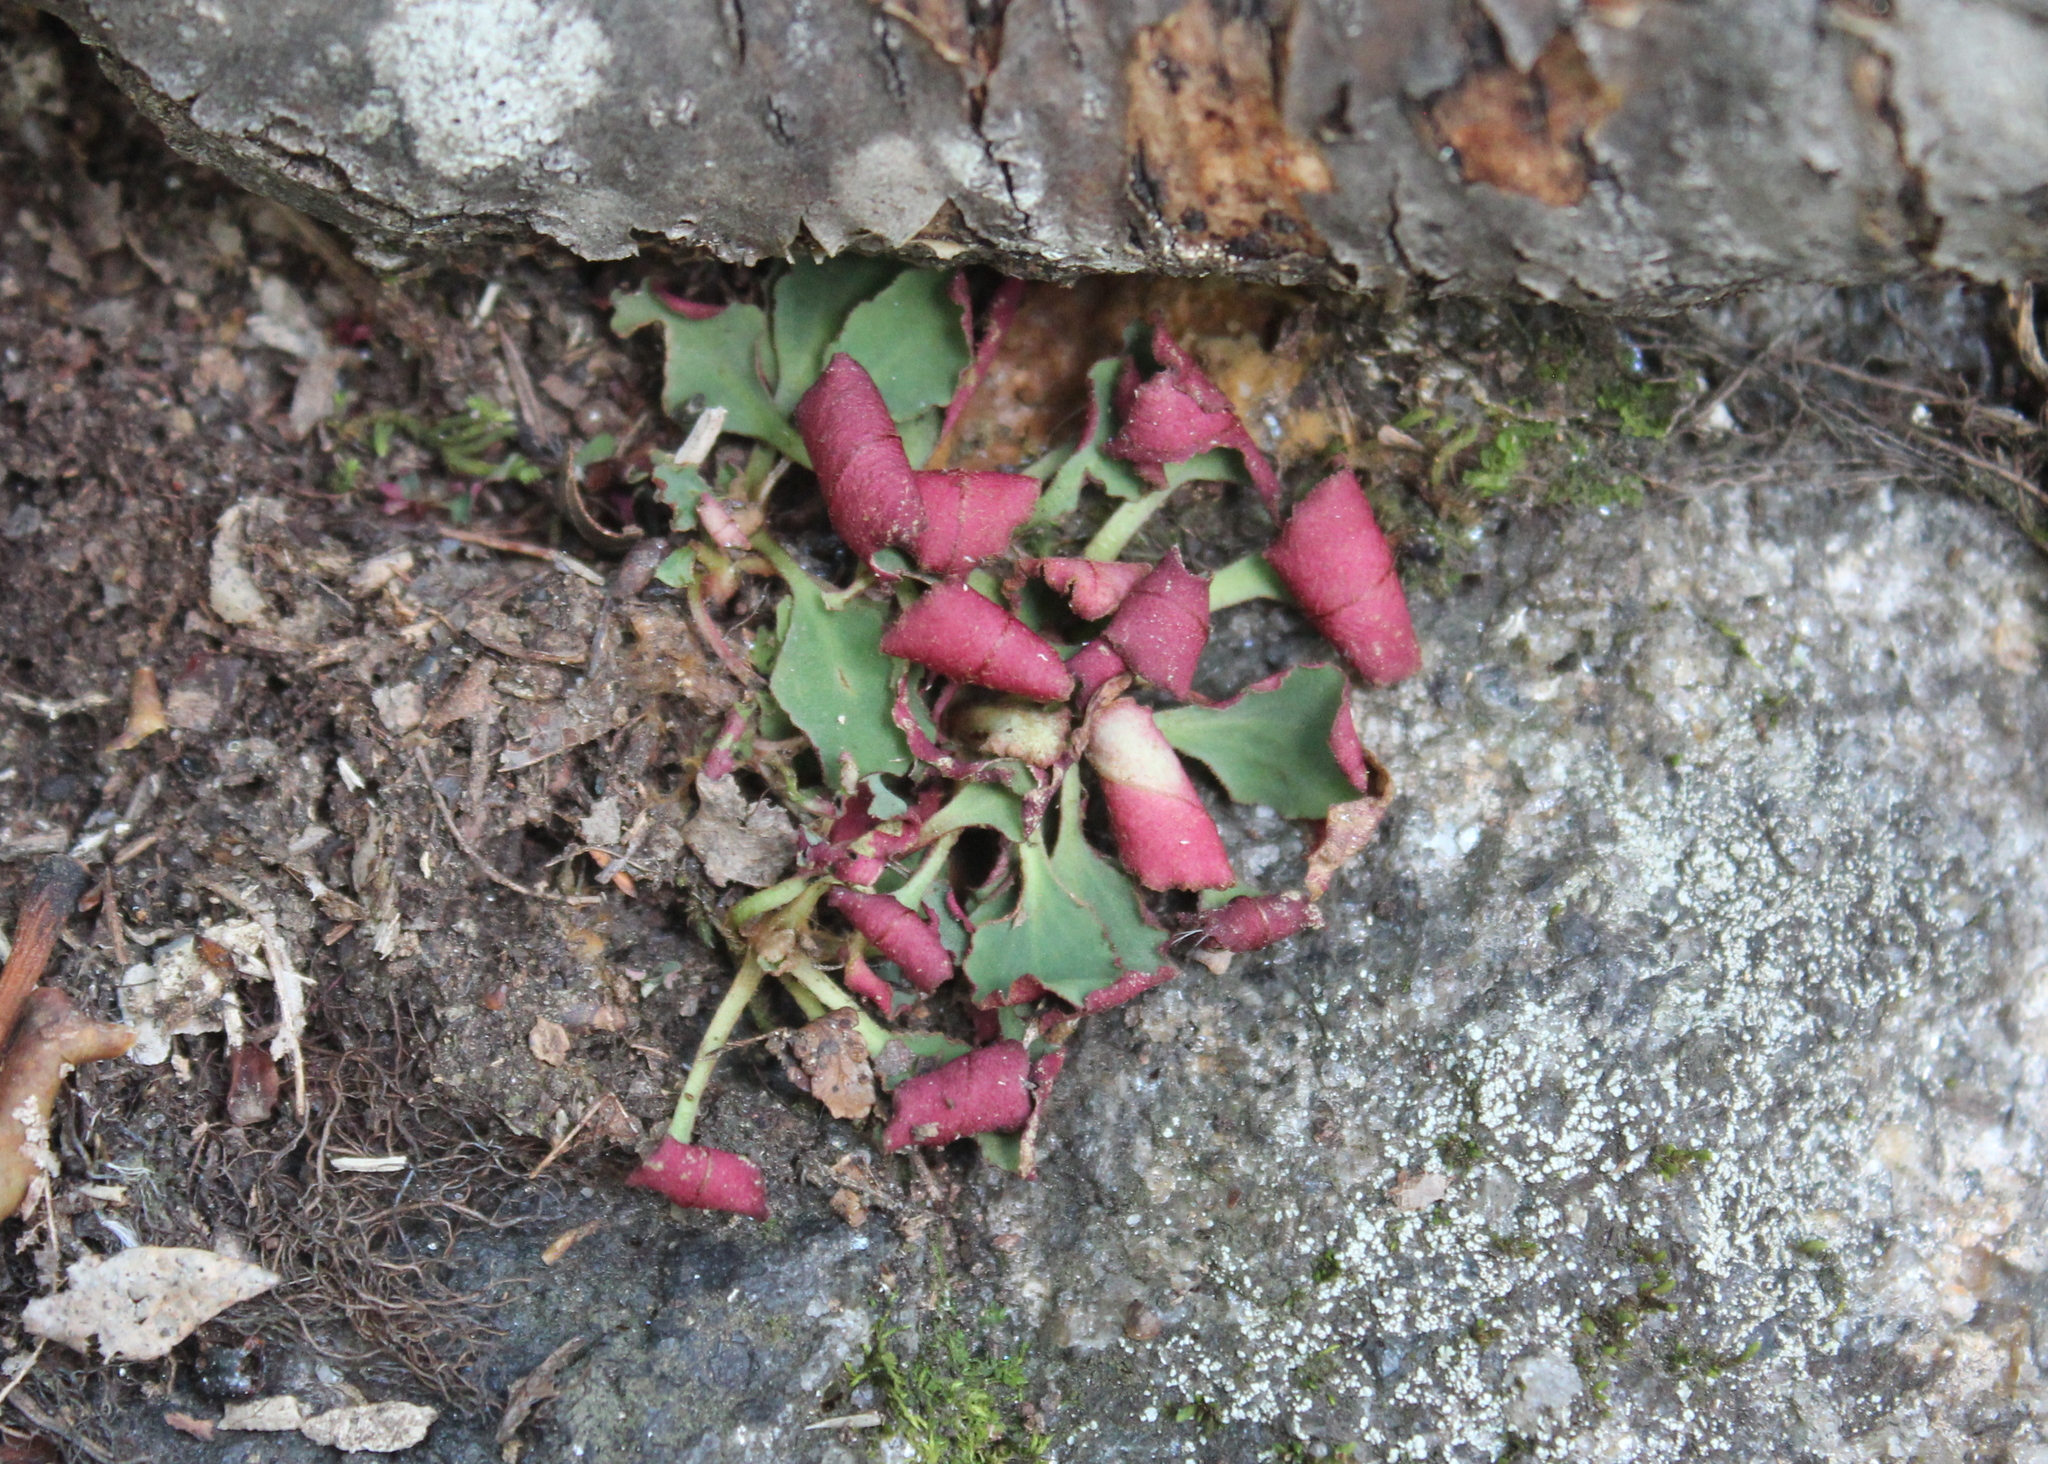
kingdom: Plantae
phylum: Tracheophyta
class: Magnoliopsida
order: Saxifragales
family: Saxifragaceae
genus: Micranthes
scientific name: Micranthes virginiensis
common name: Early saxifrage
